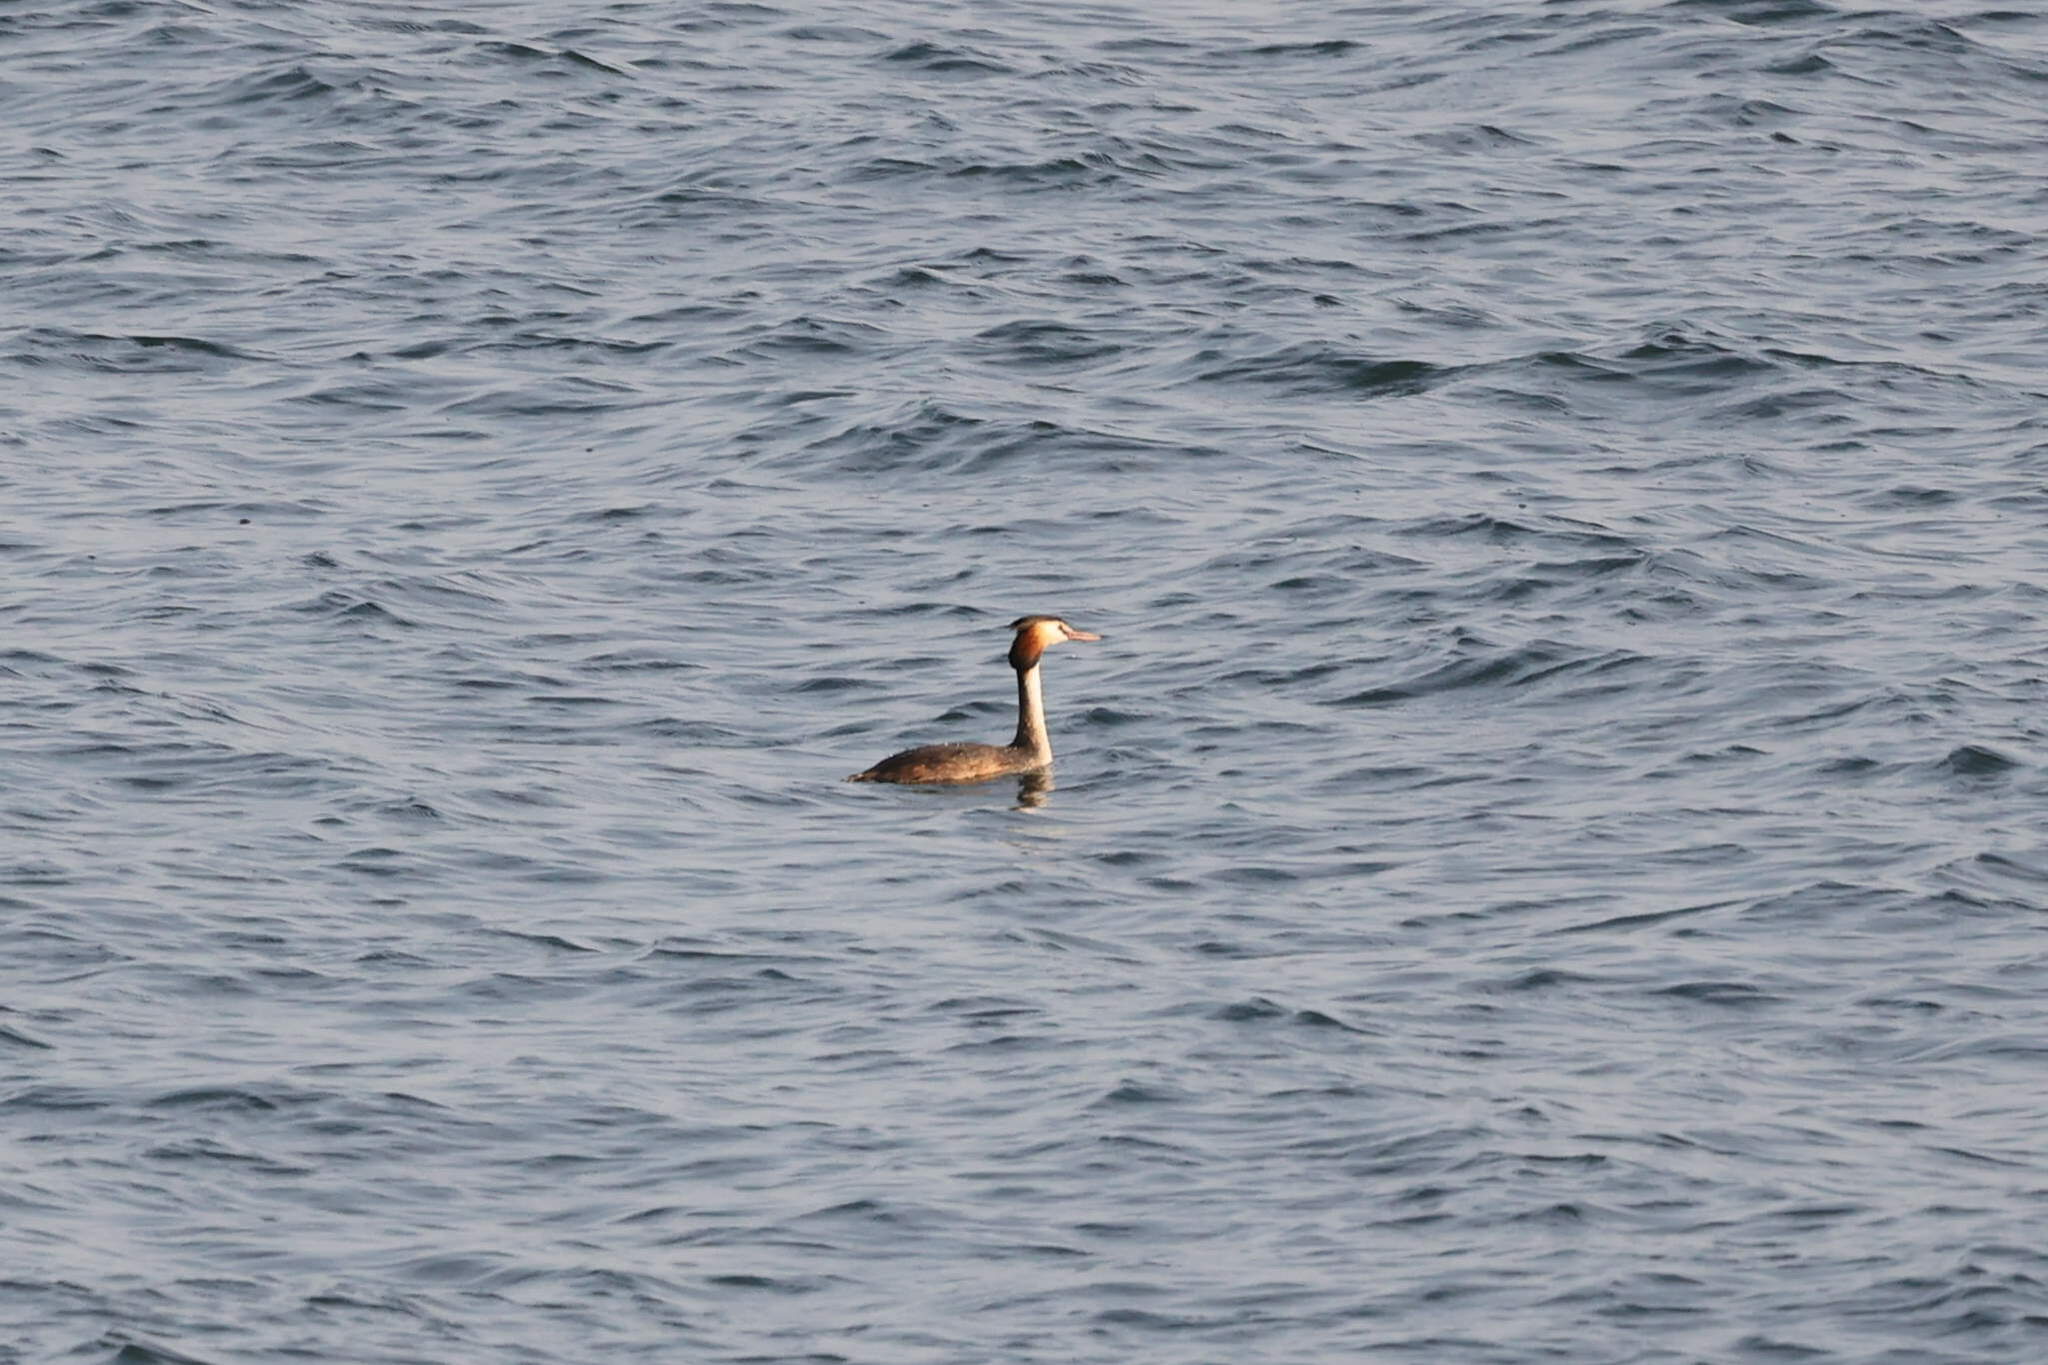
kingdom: Animalia
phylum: Chordata
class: Aves
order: Podicipediformes
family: Podicipedidae
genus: Podiceps
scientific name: Podiceps cristatus
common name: Great crested grebe
